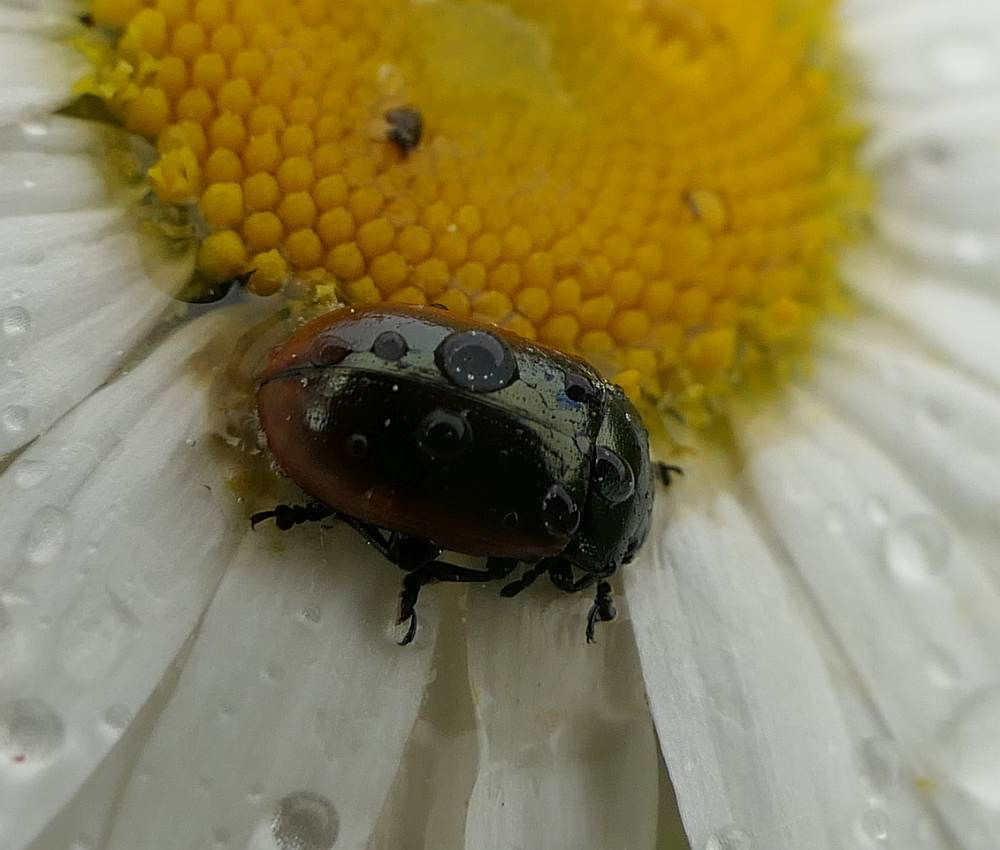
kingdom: Animalia
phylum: Arthropoda
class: Insecta
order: Coleoptera
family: Chrysomelidae
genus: Chrysolina
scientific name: Chrysolina marginata
